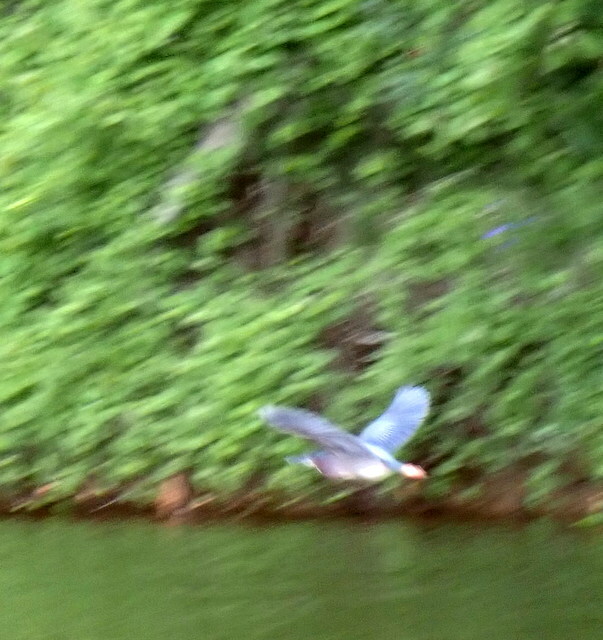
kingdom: Animalia
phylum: Chordata
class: Aves
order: Pelecaniformes
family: Ardeidae
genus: Butorides
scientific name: Butorides virescens
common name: Green heron
